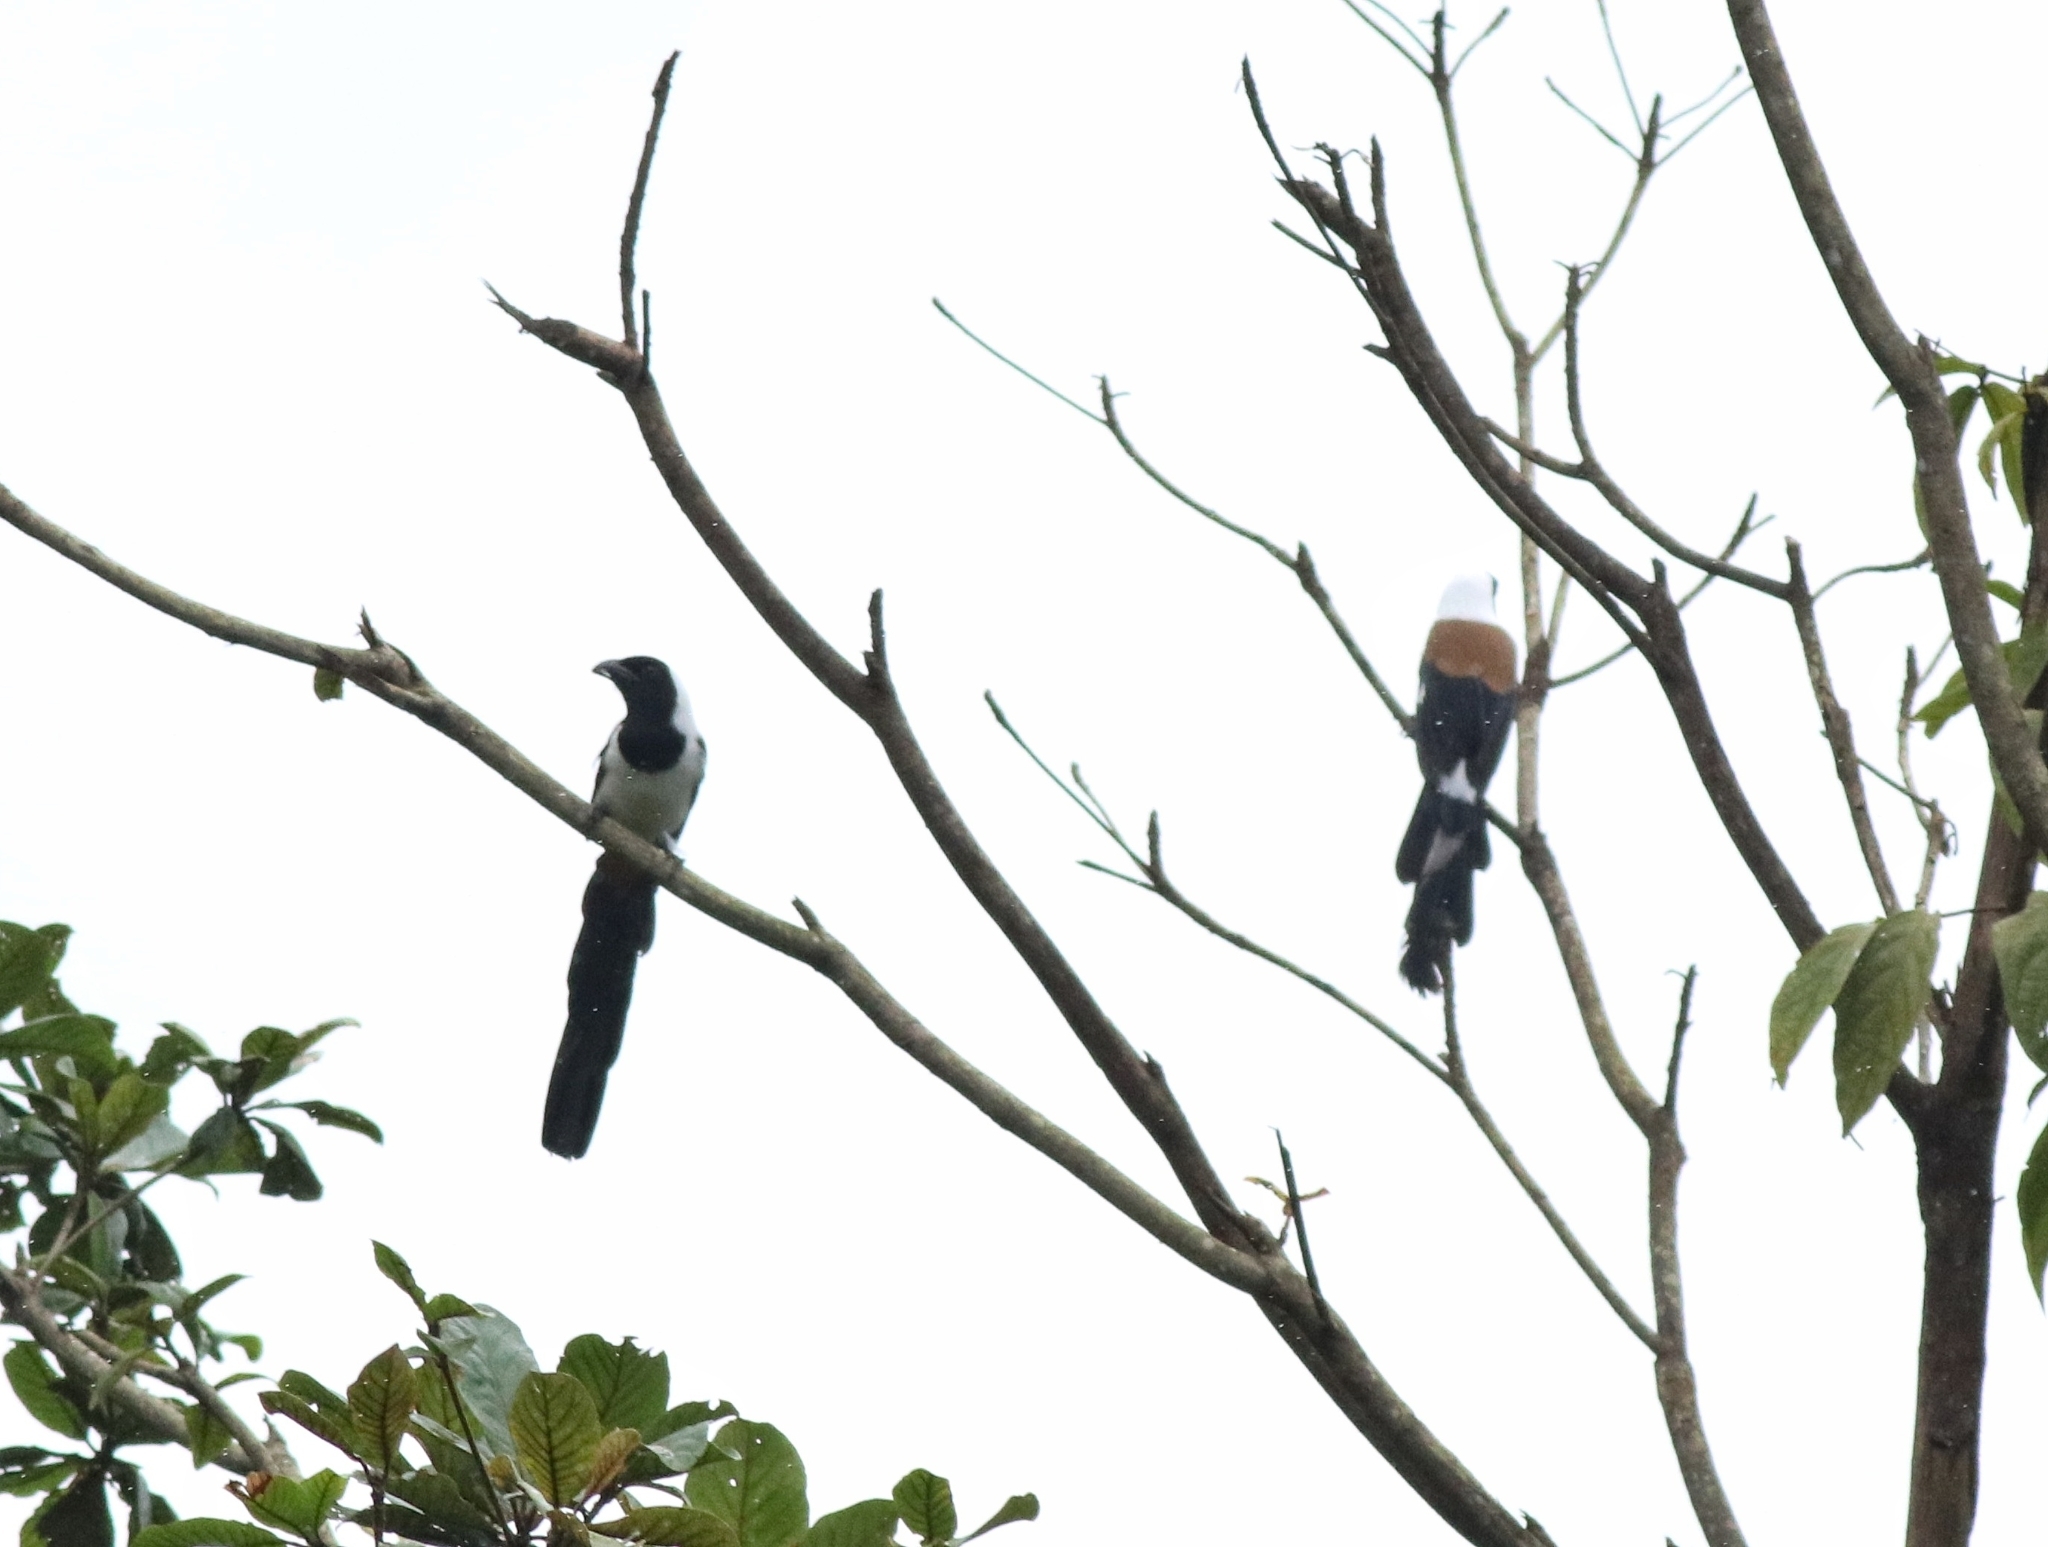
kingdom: Animalia
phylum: Chordata
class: Aves
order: Passeriformes
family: Corvidae
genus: Dendrocitta
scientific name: Dendrocitta leucogastra
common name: White-bellied treepie
